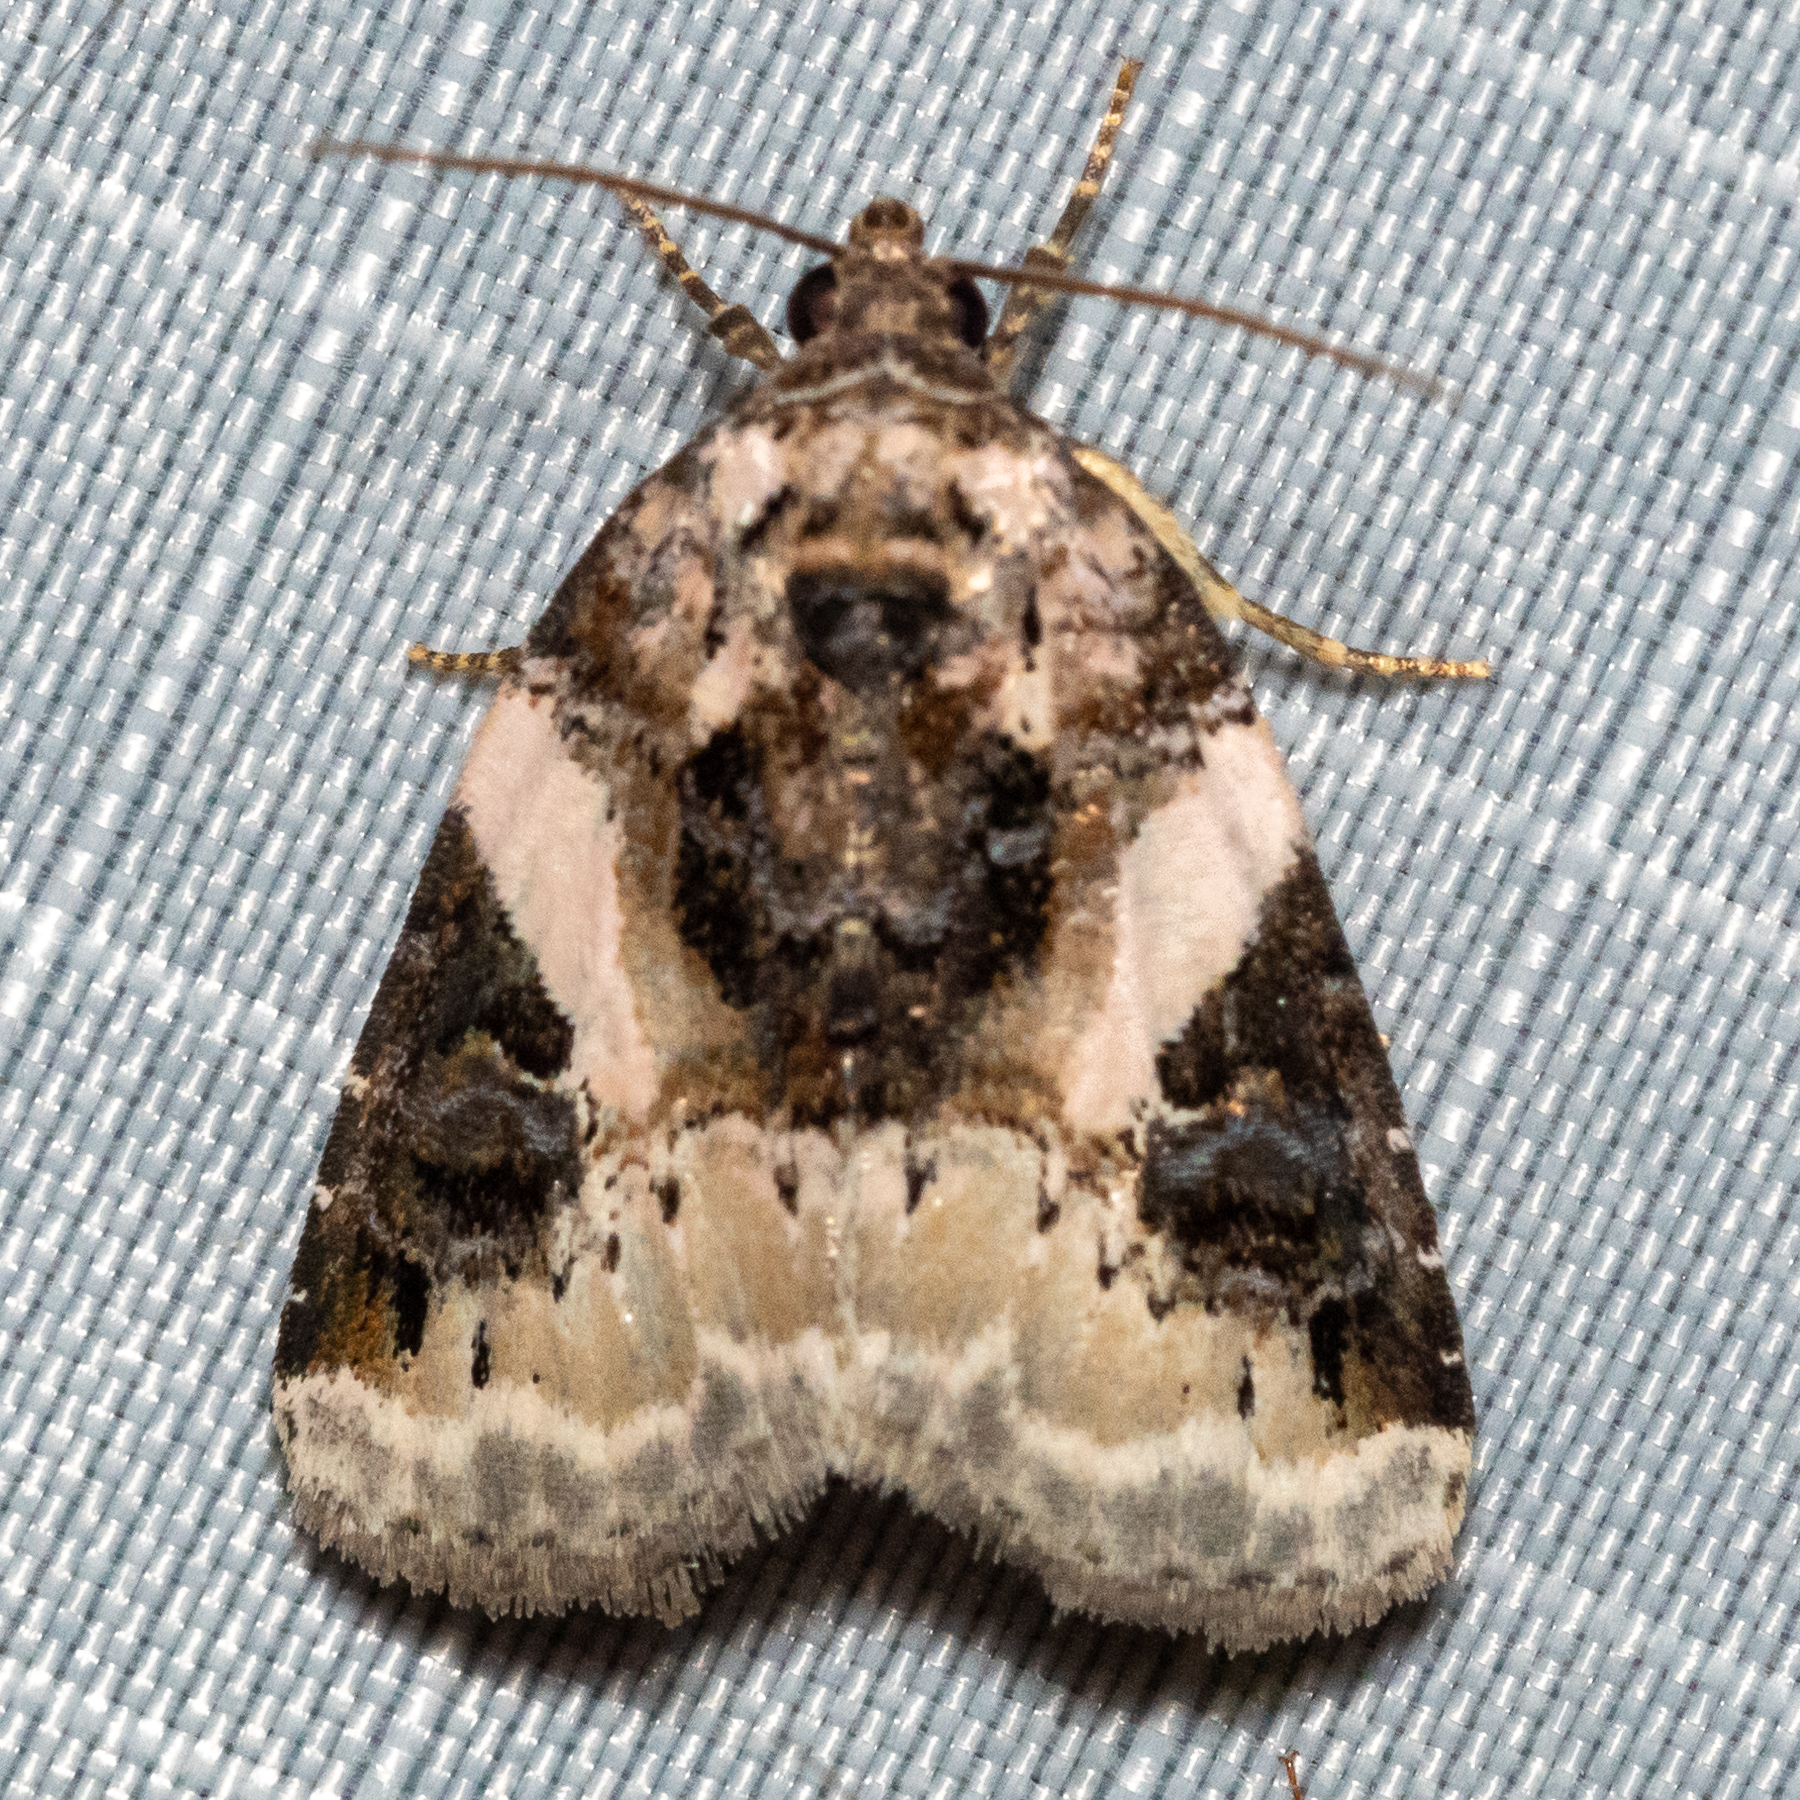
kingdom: Animalia
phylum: Arthropoda
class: Insecta
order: Lepidoptera
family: Noctuidae
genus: Pseudeustrotia
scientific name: Pseudeustrotia carneola
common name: Pink-barred lithacodia moth
